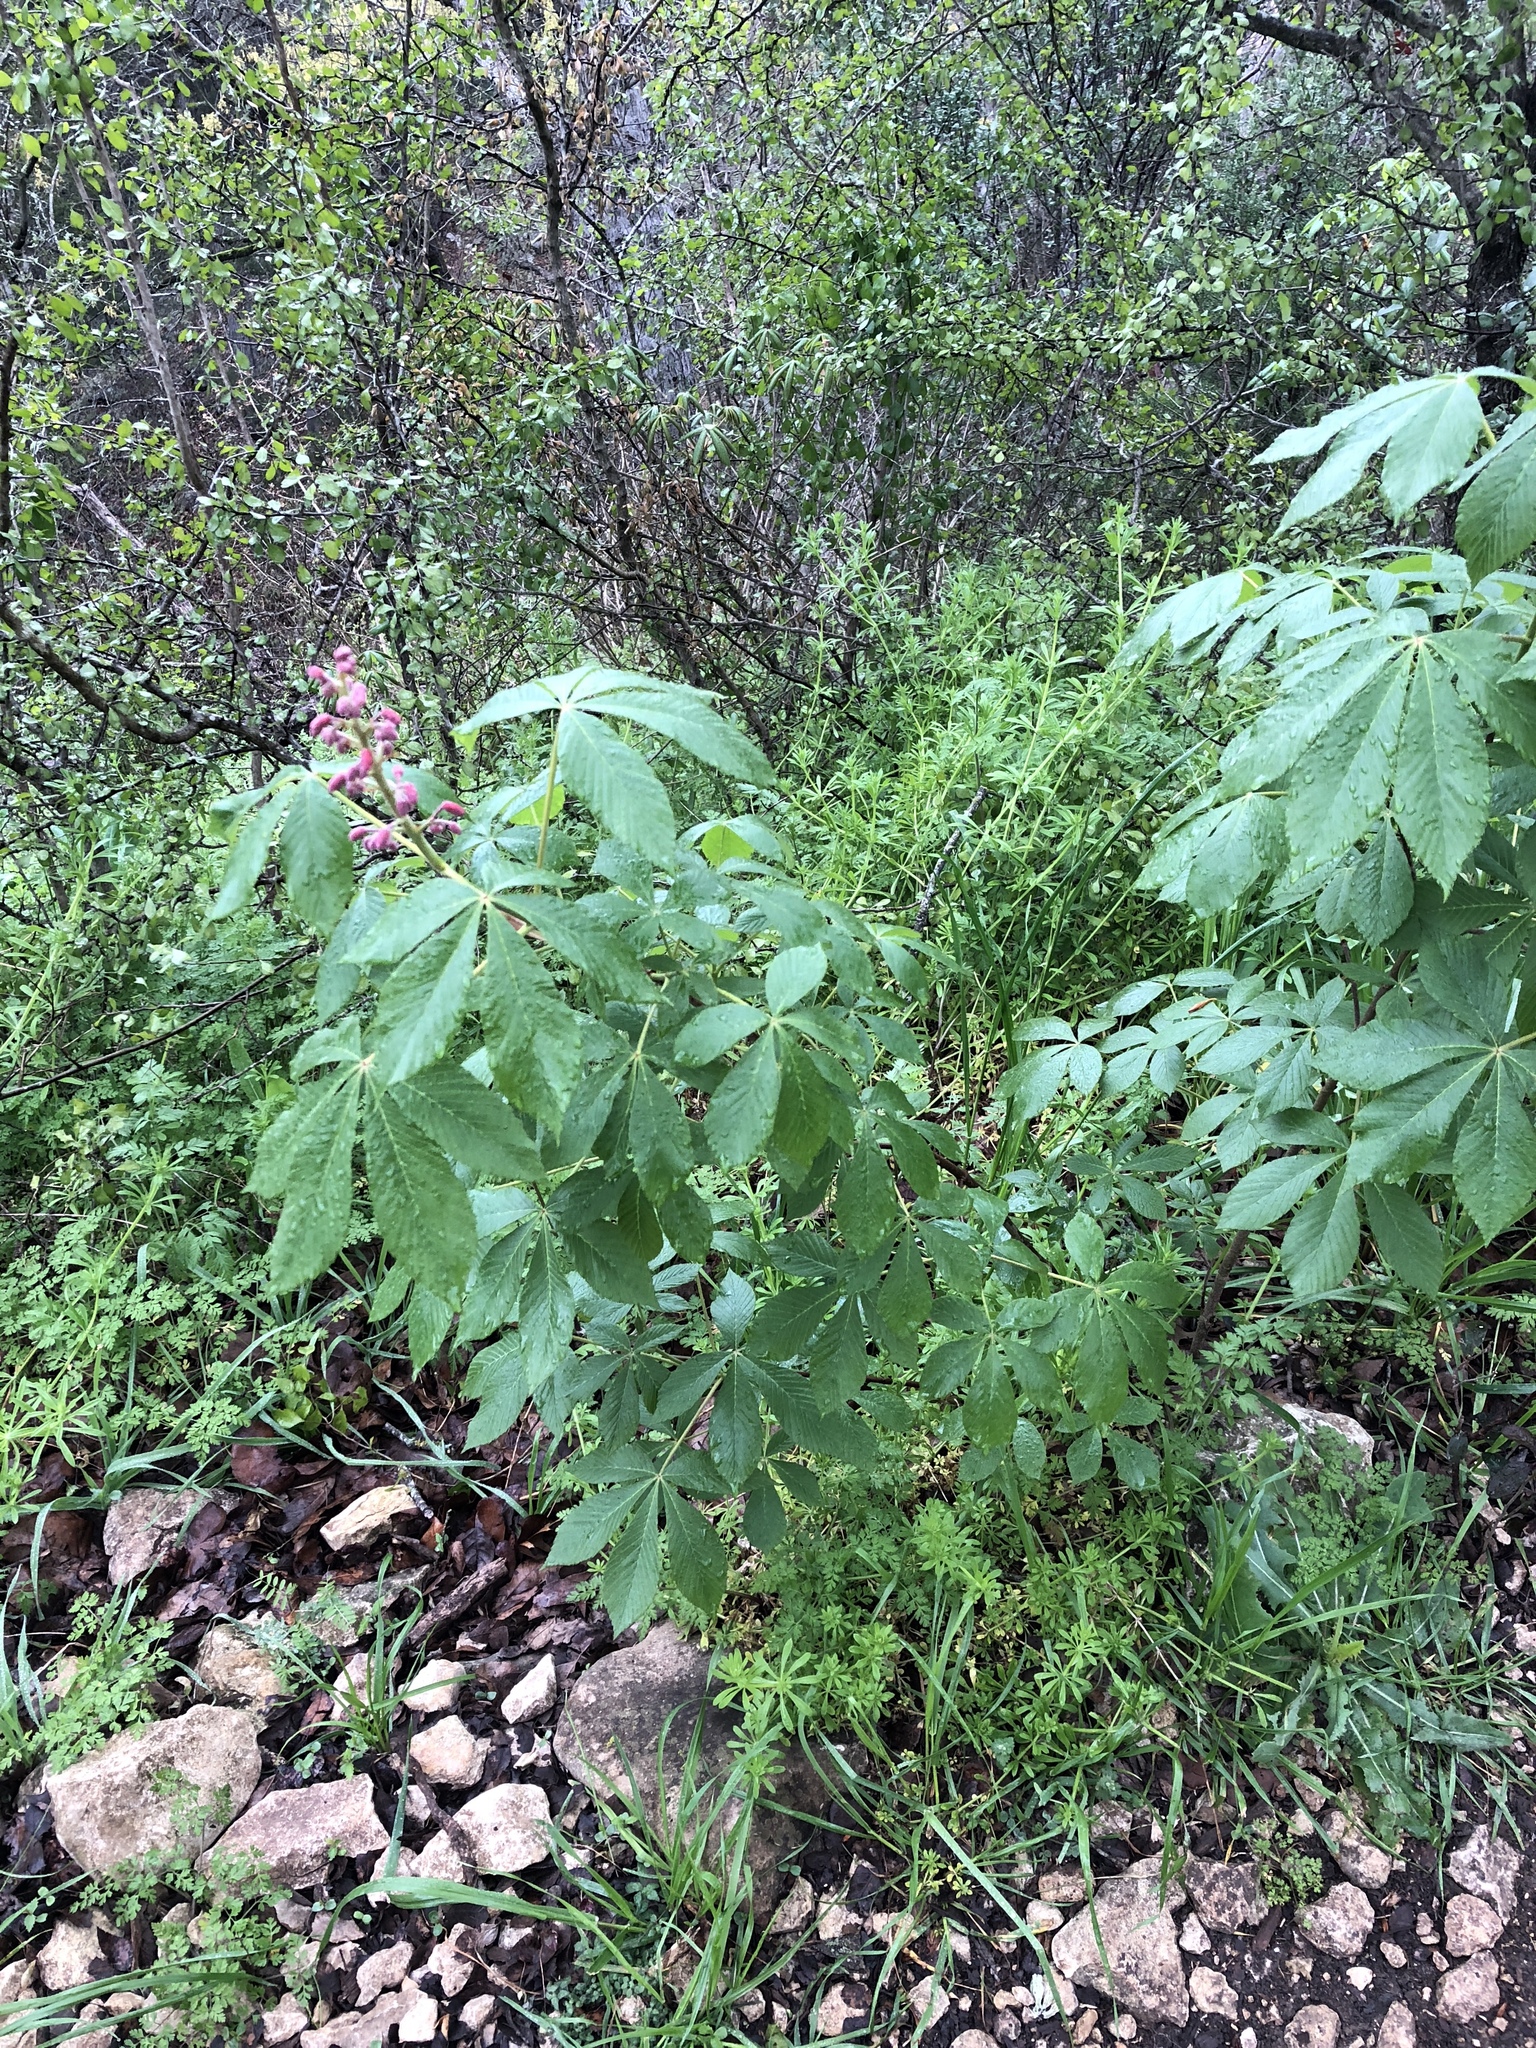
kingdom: Plantae
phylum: Tracheophyta
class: Magnoliopsida
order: Sapindales
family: Sapindaceae
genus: Aesculus
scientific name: Aesculus pavia
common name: Red buckeye
